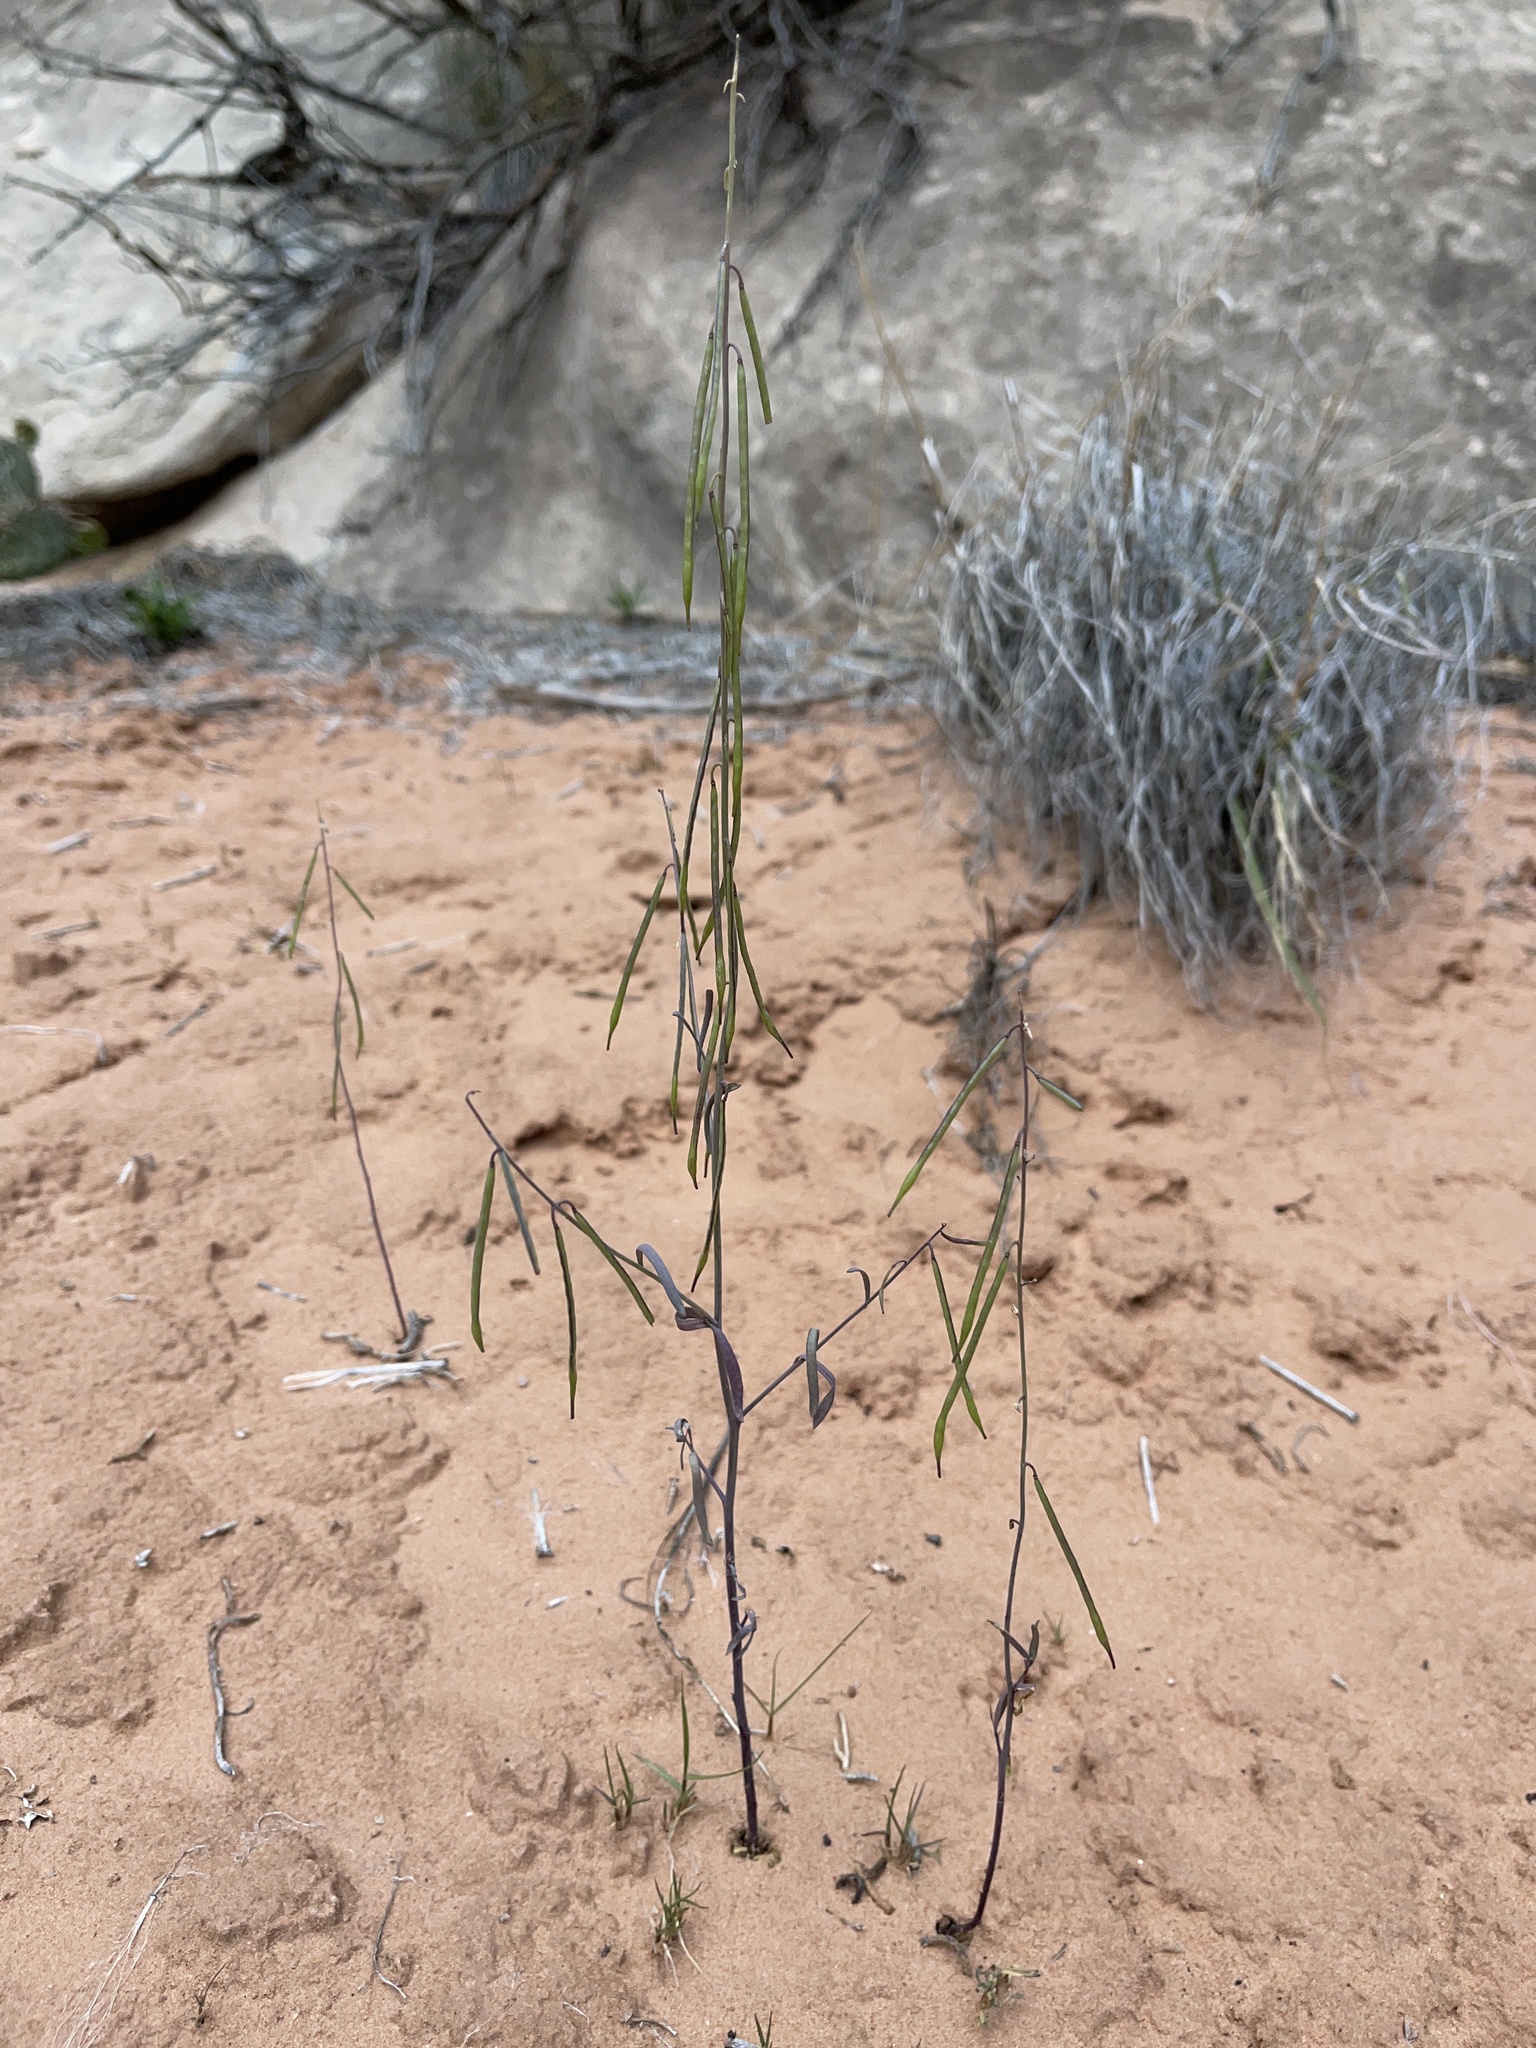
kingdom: Plantae
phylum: Tracheophyta
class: Magnoliopsida
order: Brassicales
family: Brassicaceae
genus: Streptanthus
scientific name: Streptanthus longirostris
